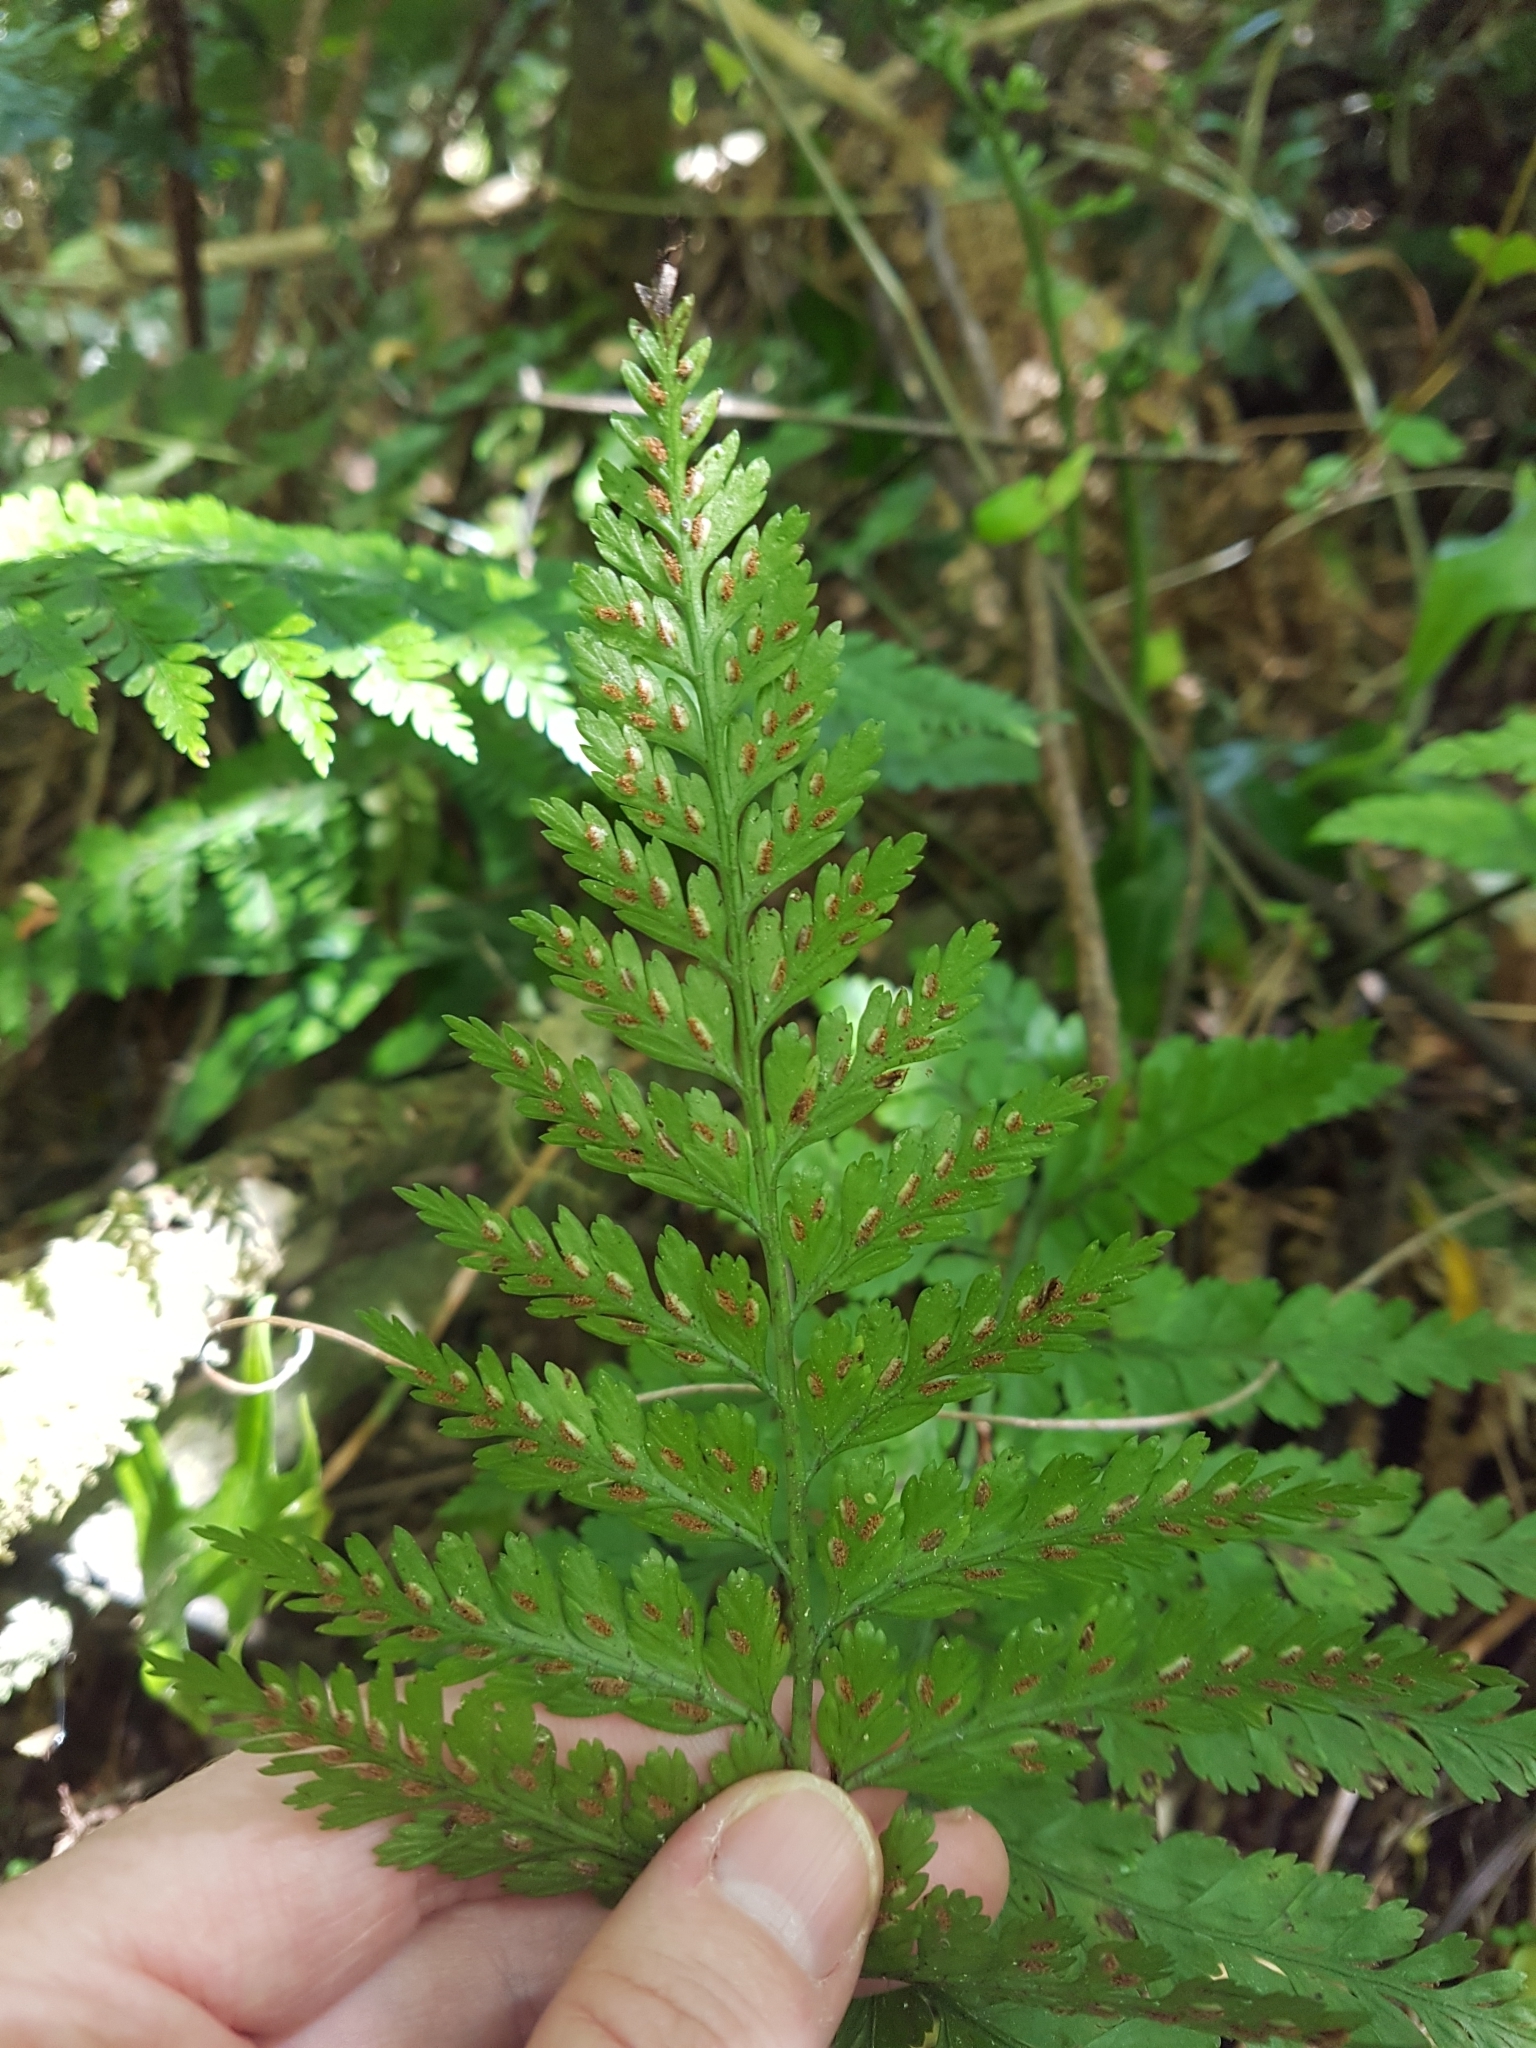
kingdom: Plantae
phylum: Tracheophyta
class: Polypodiopsida
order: Polypodiales
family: Aspleniaceae
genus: Asplenium
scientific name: Asplenium bulbiferum
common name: Mother fern
